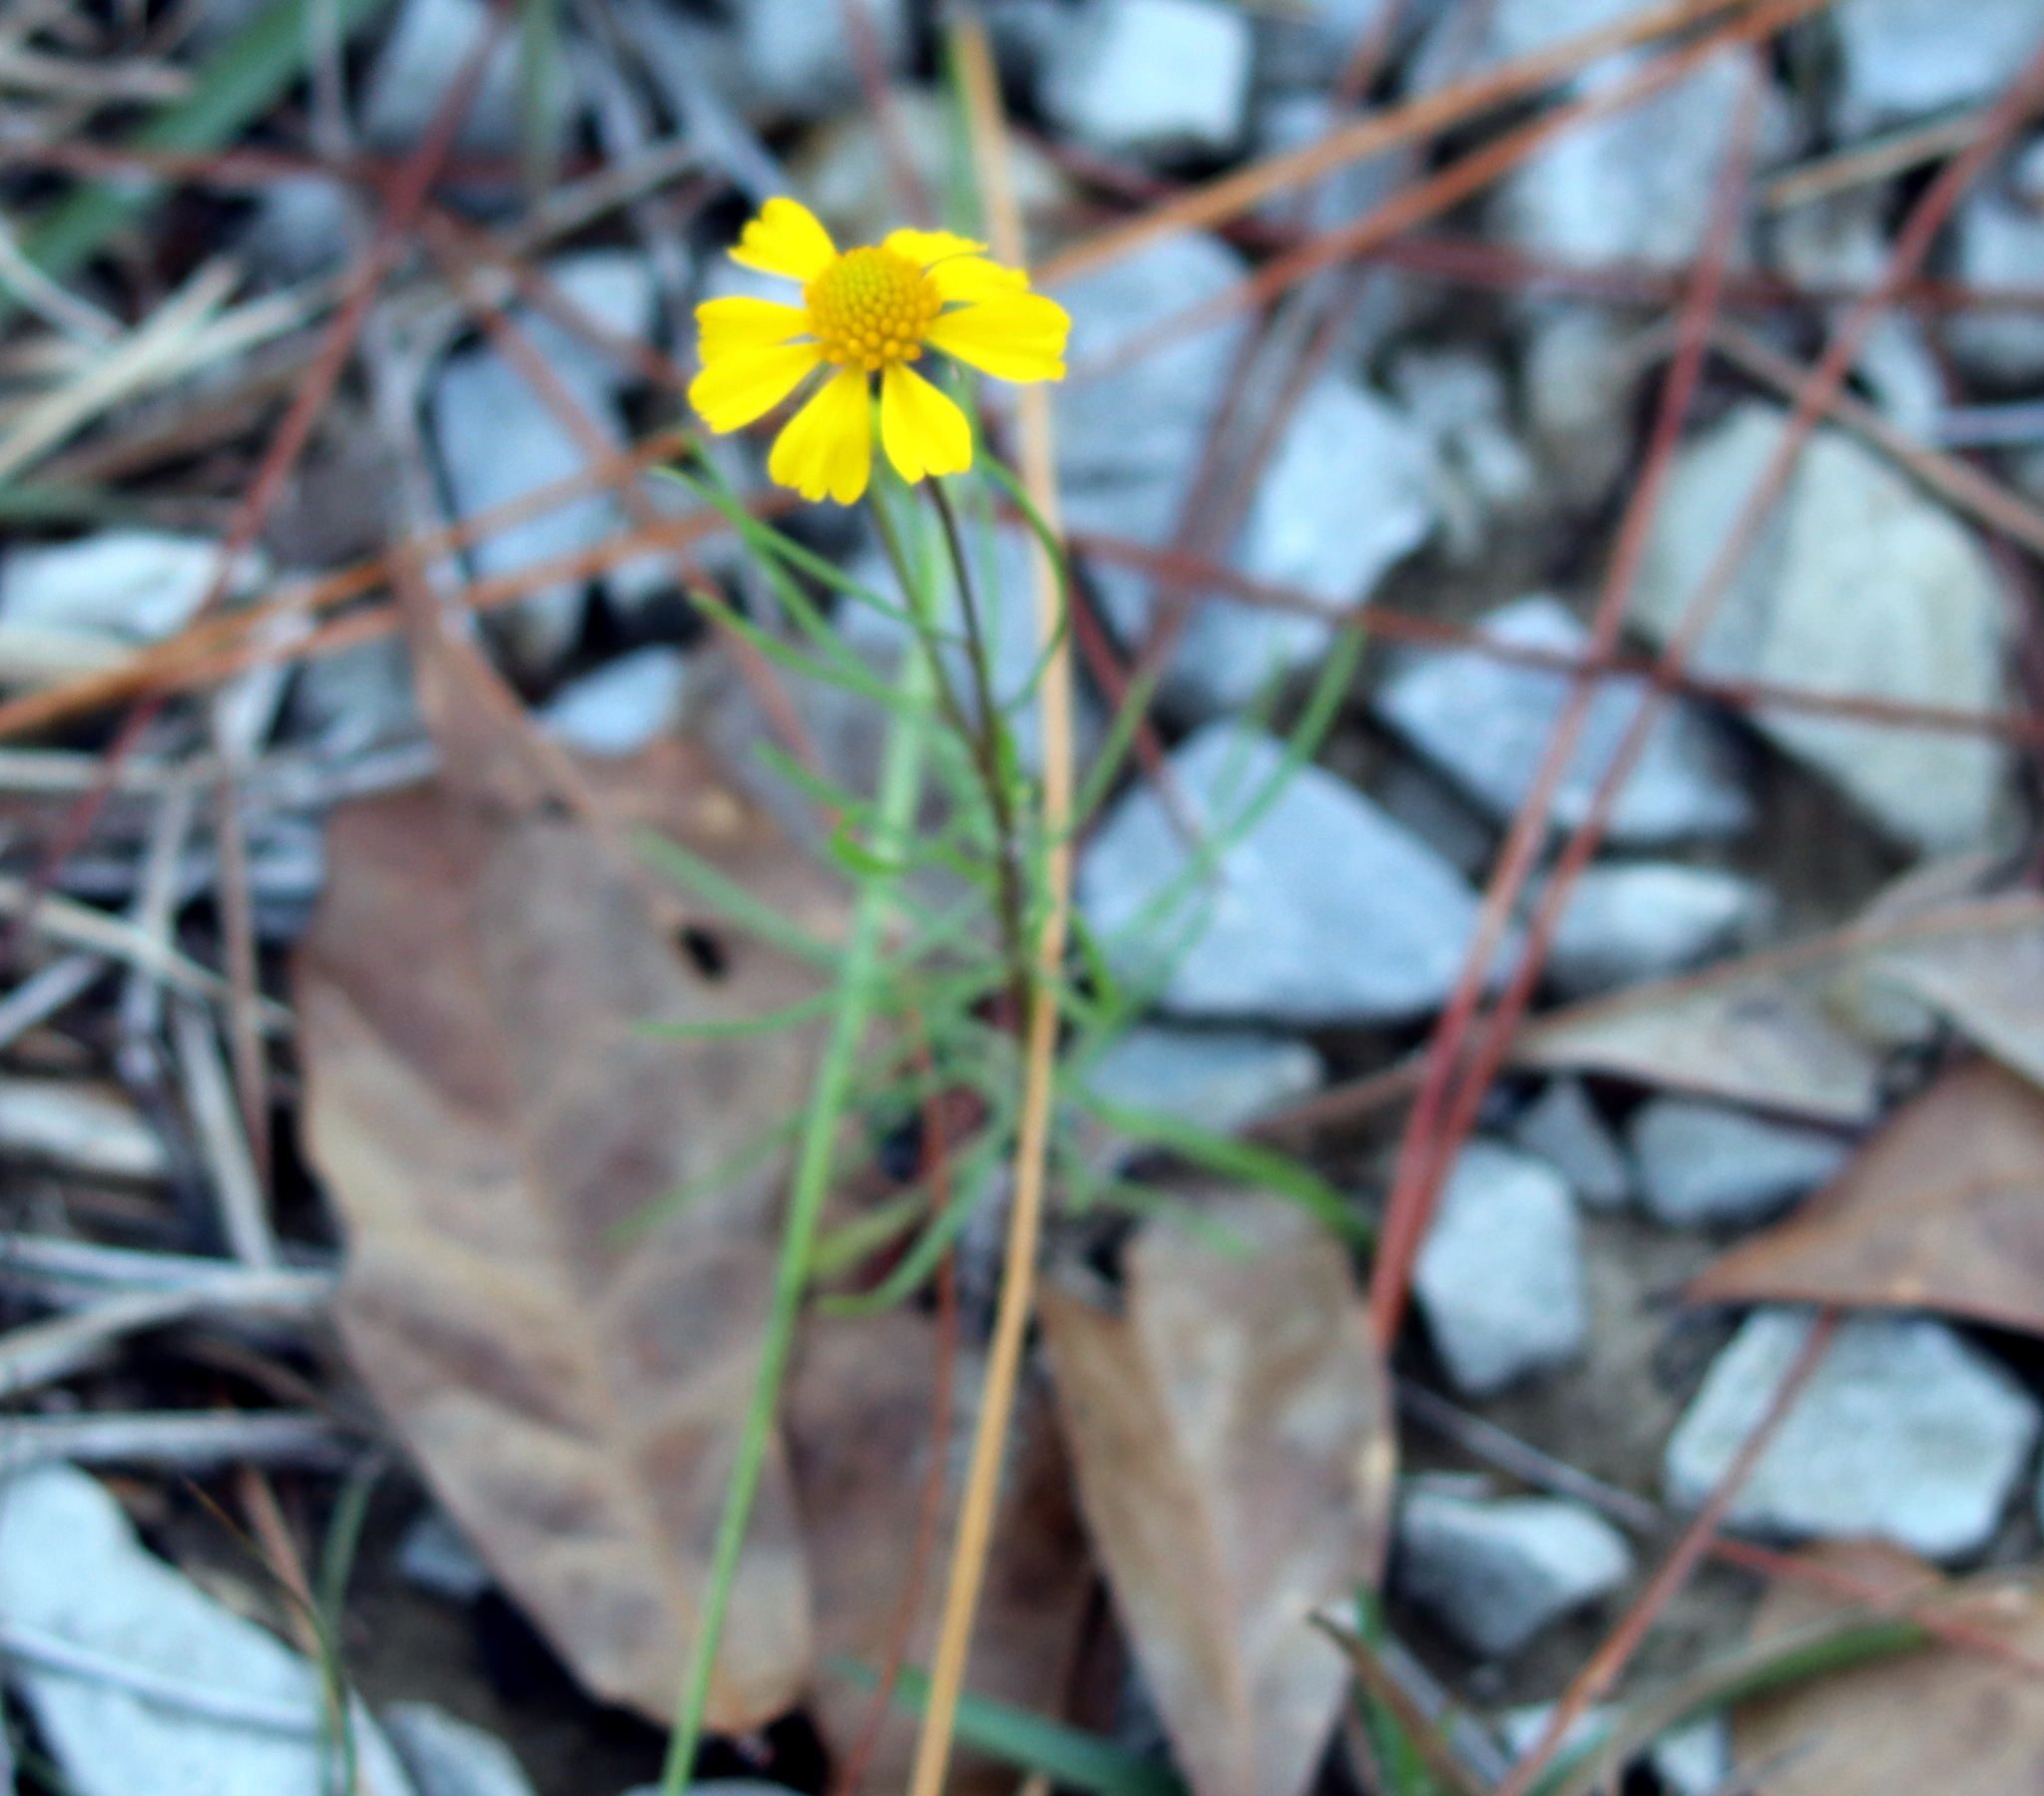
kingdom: Plantae
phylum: Tracheophyta
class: Magnoliopsida
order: Asterales
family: Asteraceae
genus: Helenium
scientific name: Helenium amarum
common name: Bitter sneezeweed
